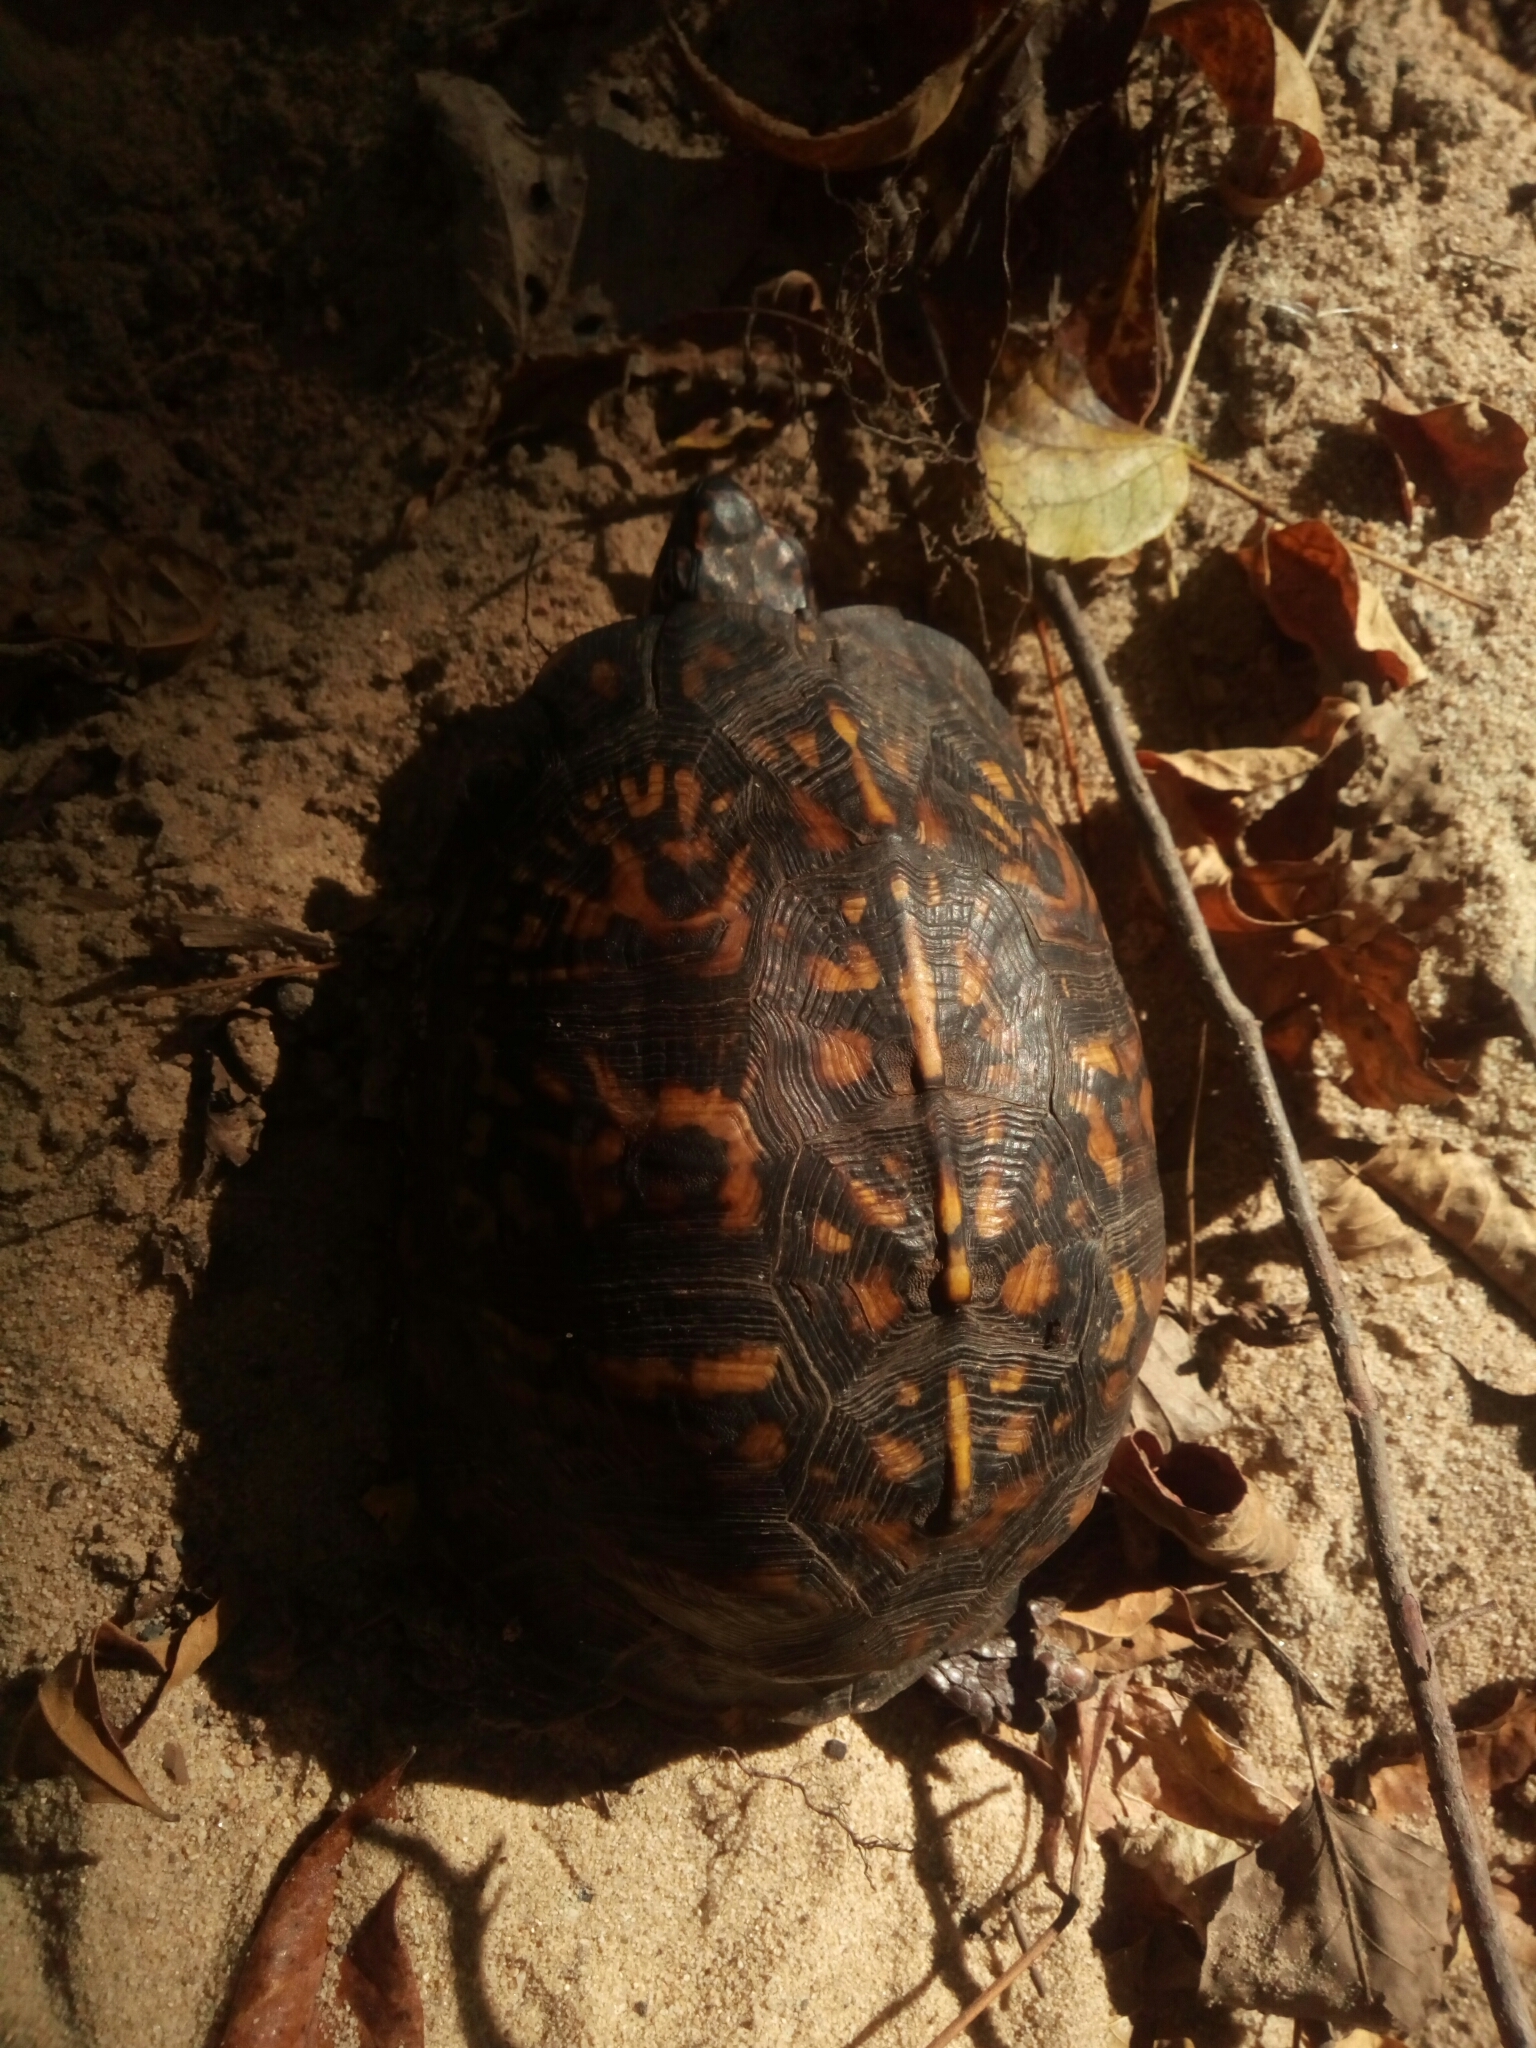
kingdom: Animalia
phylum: Chordata
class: Testudines
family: Emydidae
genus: Terrapene
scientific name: Terrapene carolina
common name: Common box turtle
